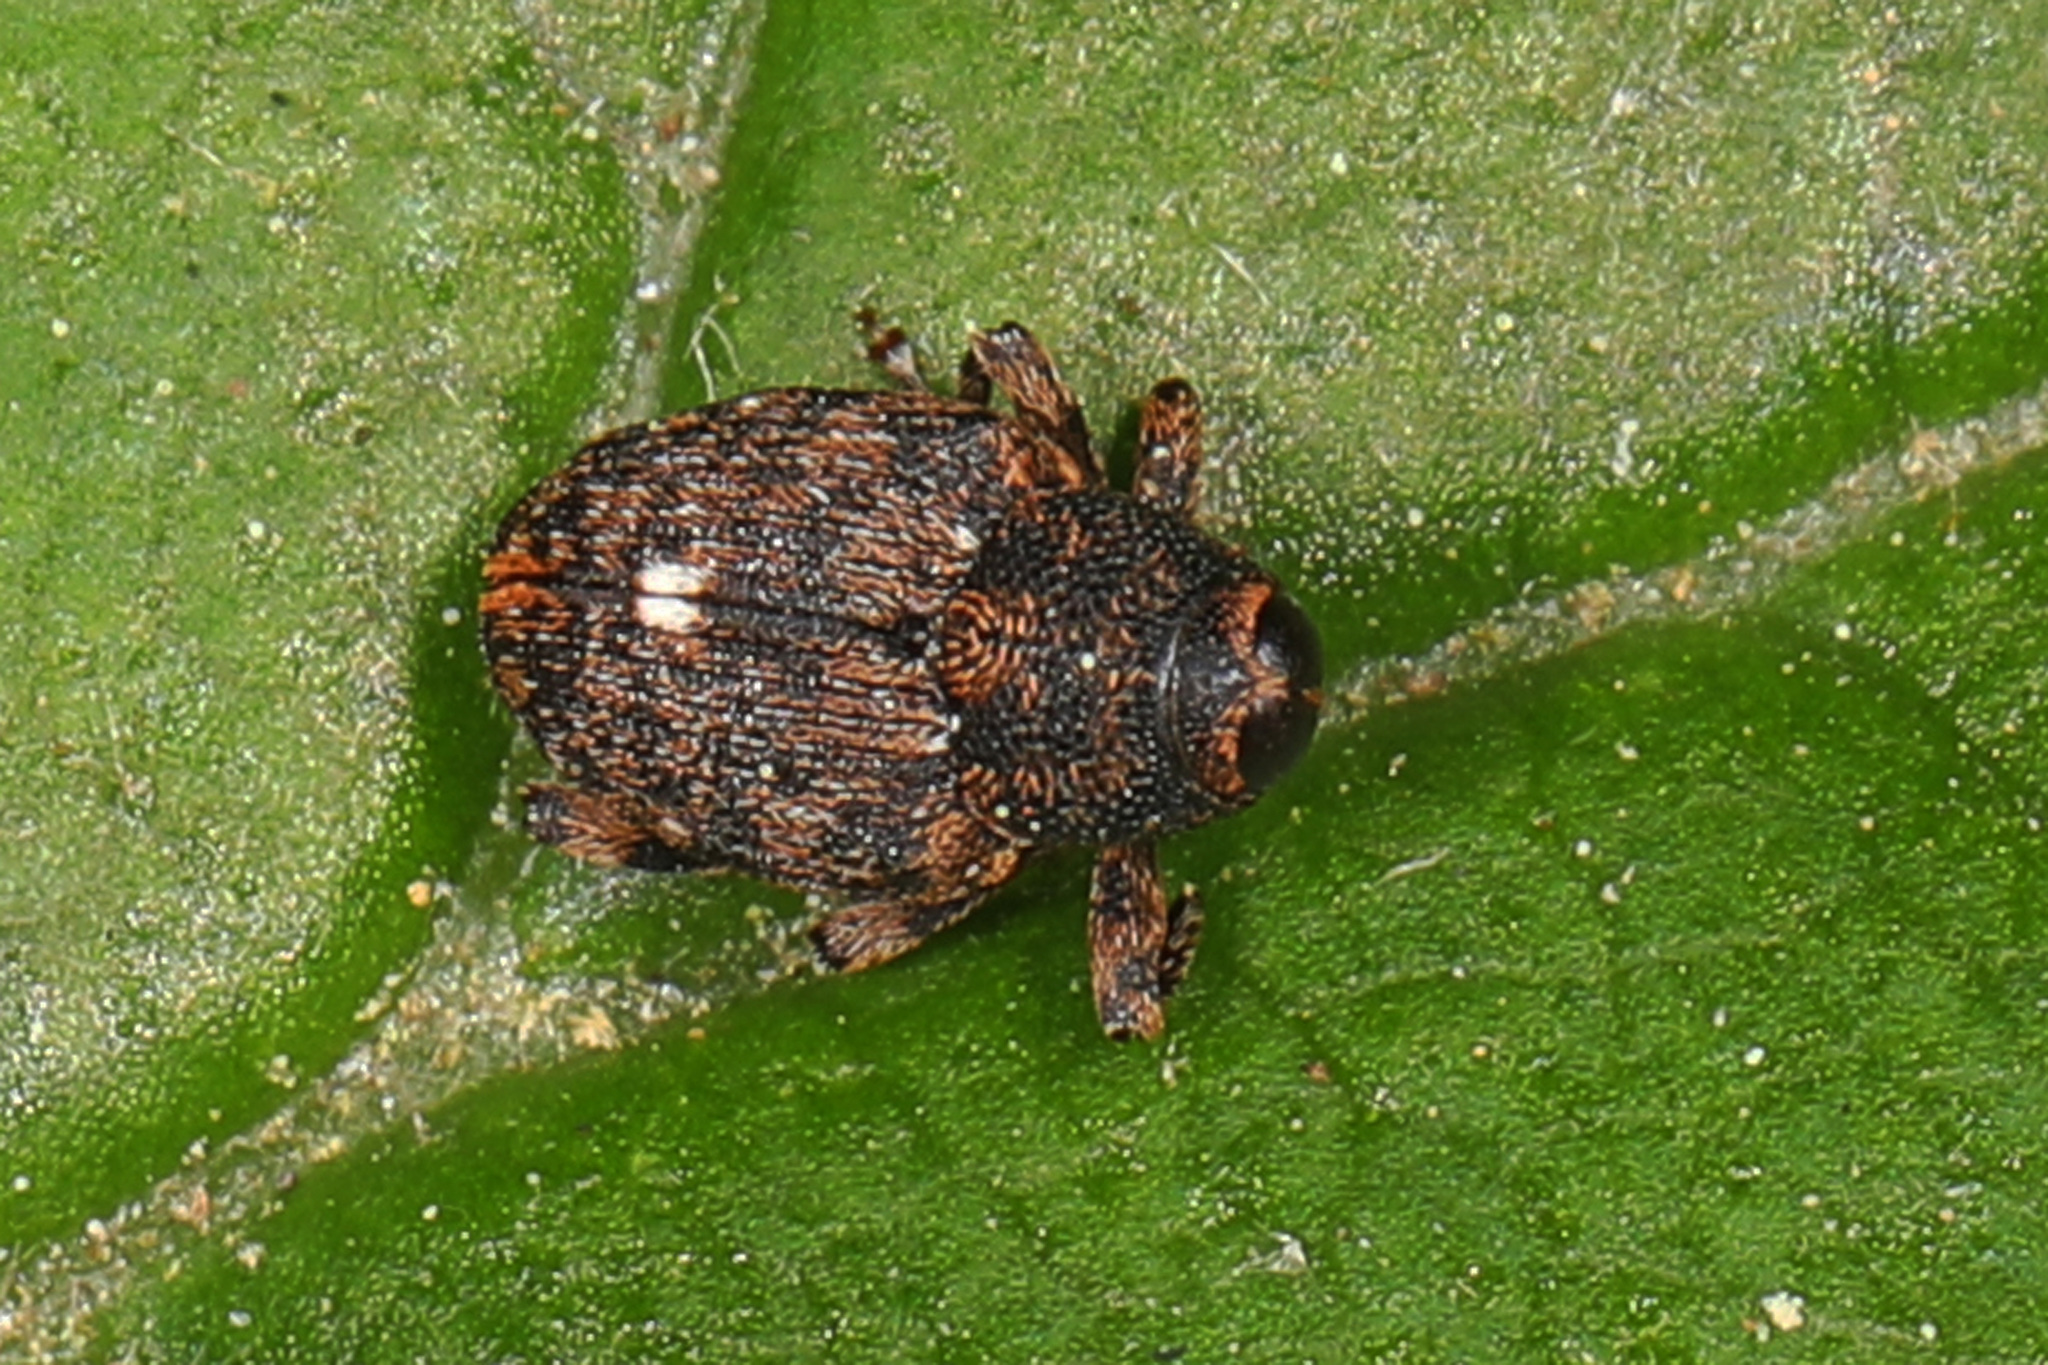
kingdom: Animalia
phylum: Arthropoda
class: Insecta
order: Coleoptera
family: Curculionidae
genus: Lechriops
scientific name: Lechriops oculatus
